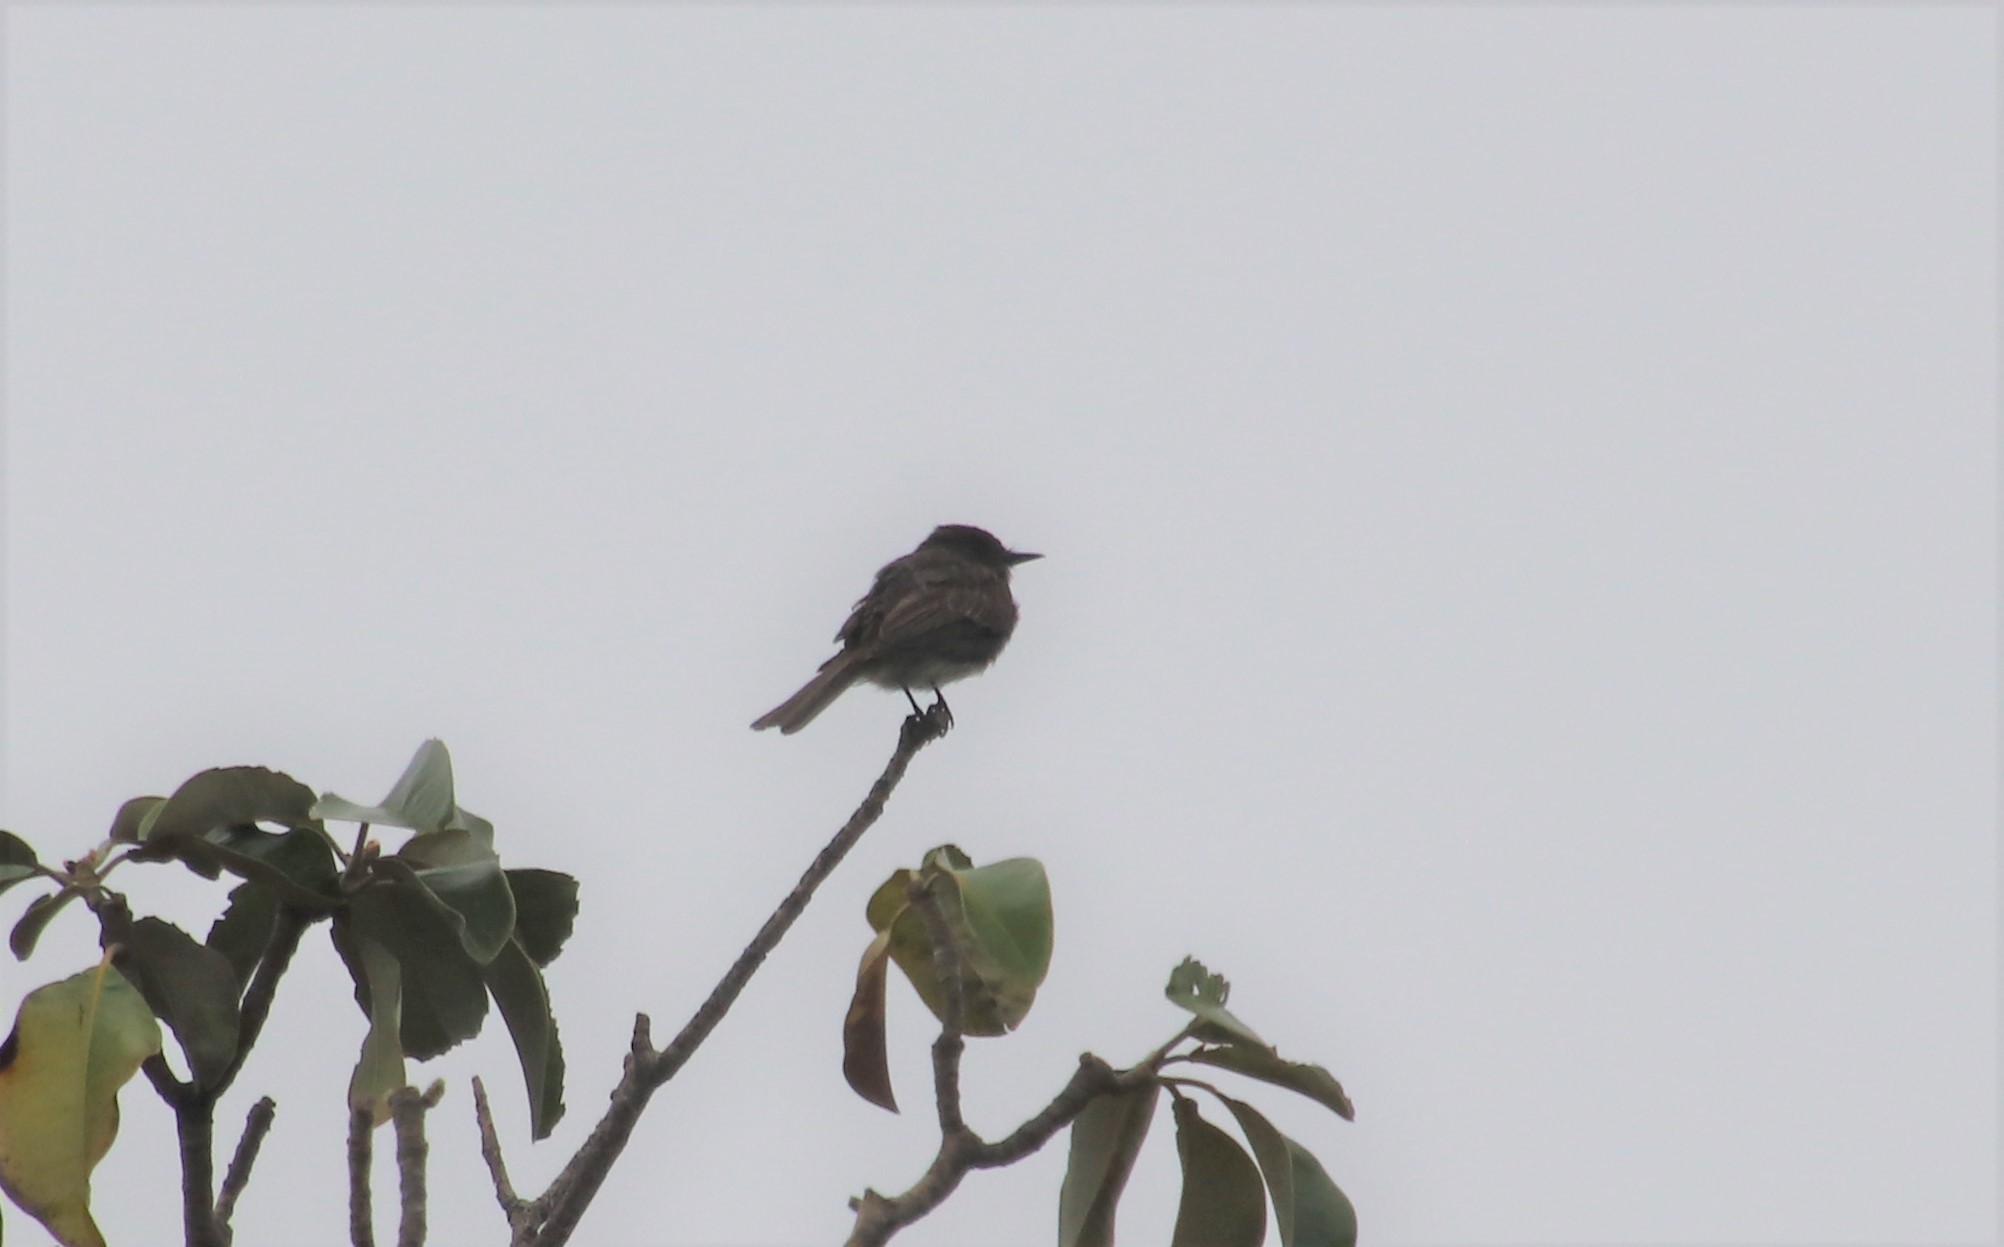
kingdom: Animalia
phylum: Chordata
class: Aves
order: Passeriformes
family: Tyrannidae
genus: Sayornis
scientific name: Sayornis nigricans
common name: Black phoebe
